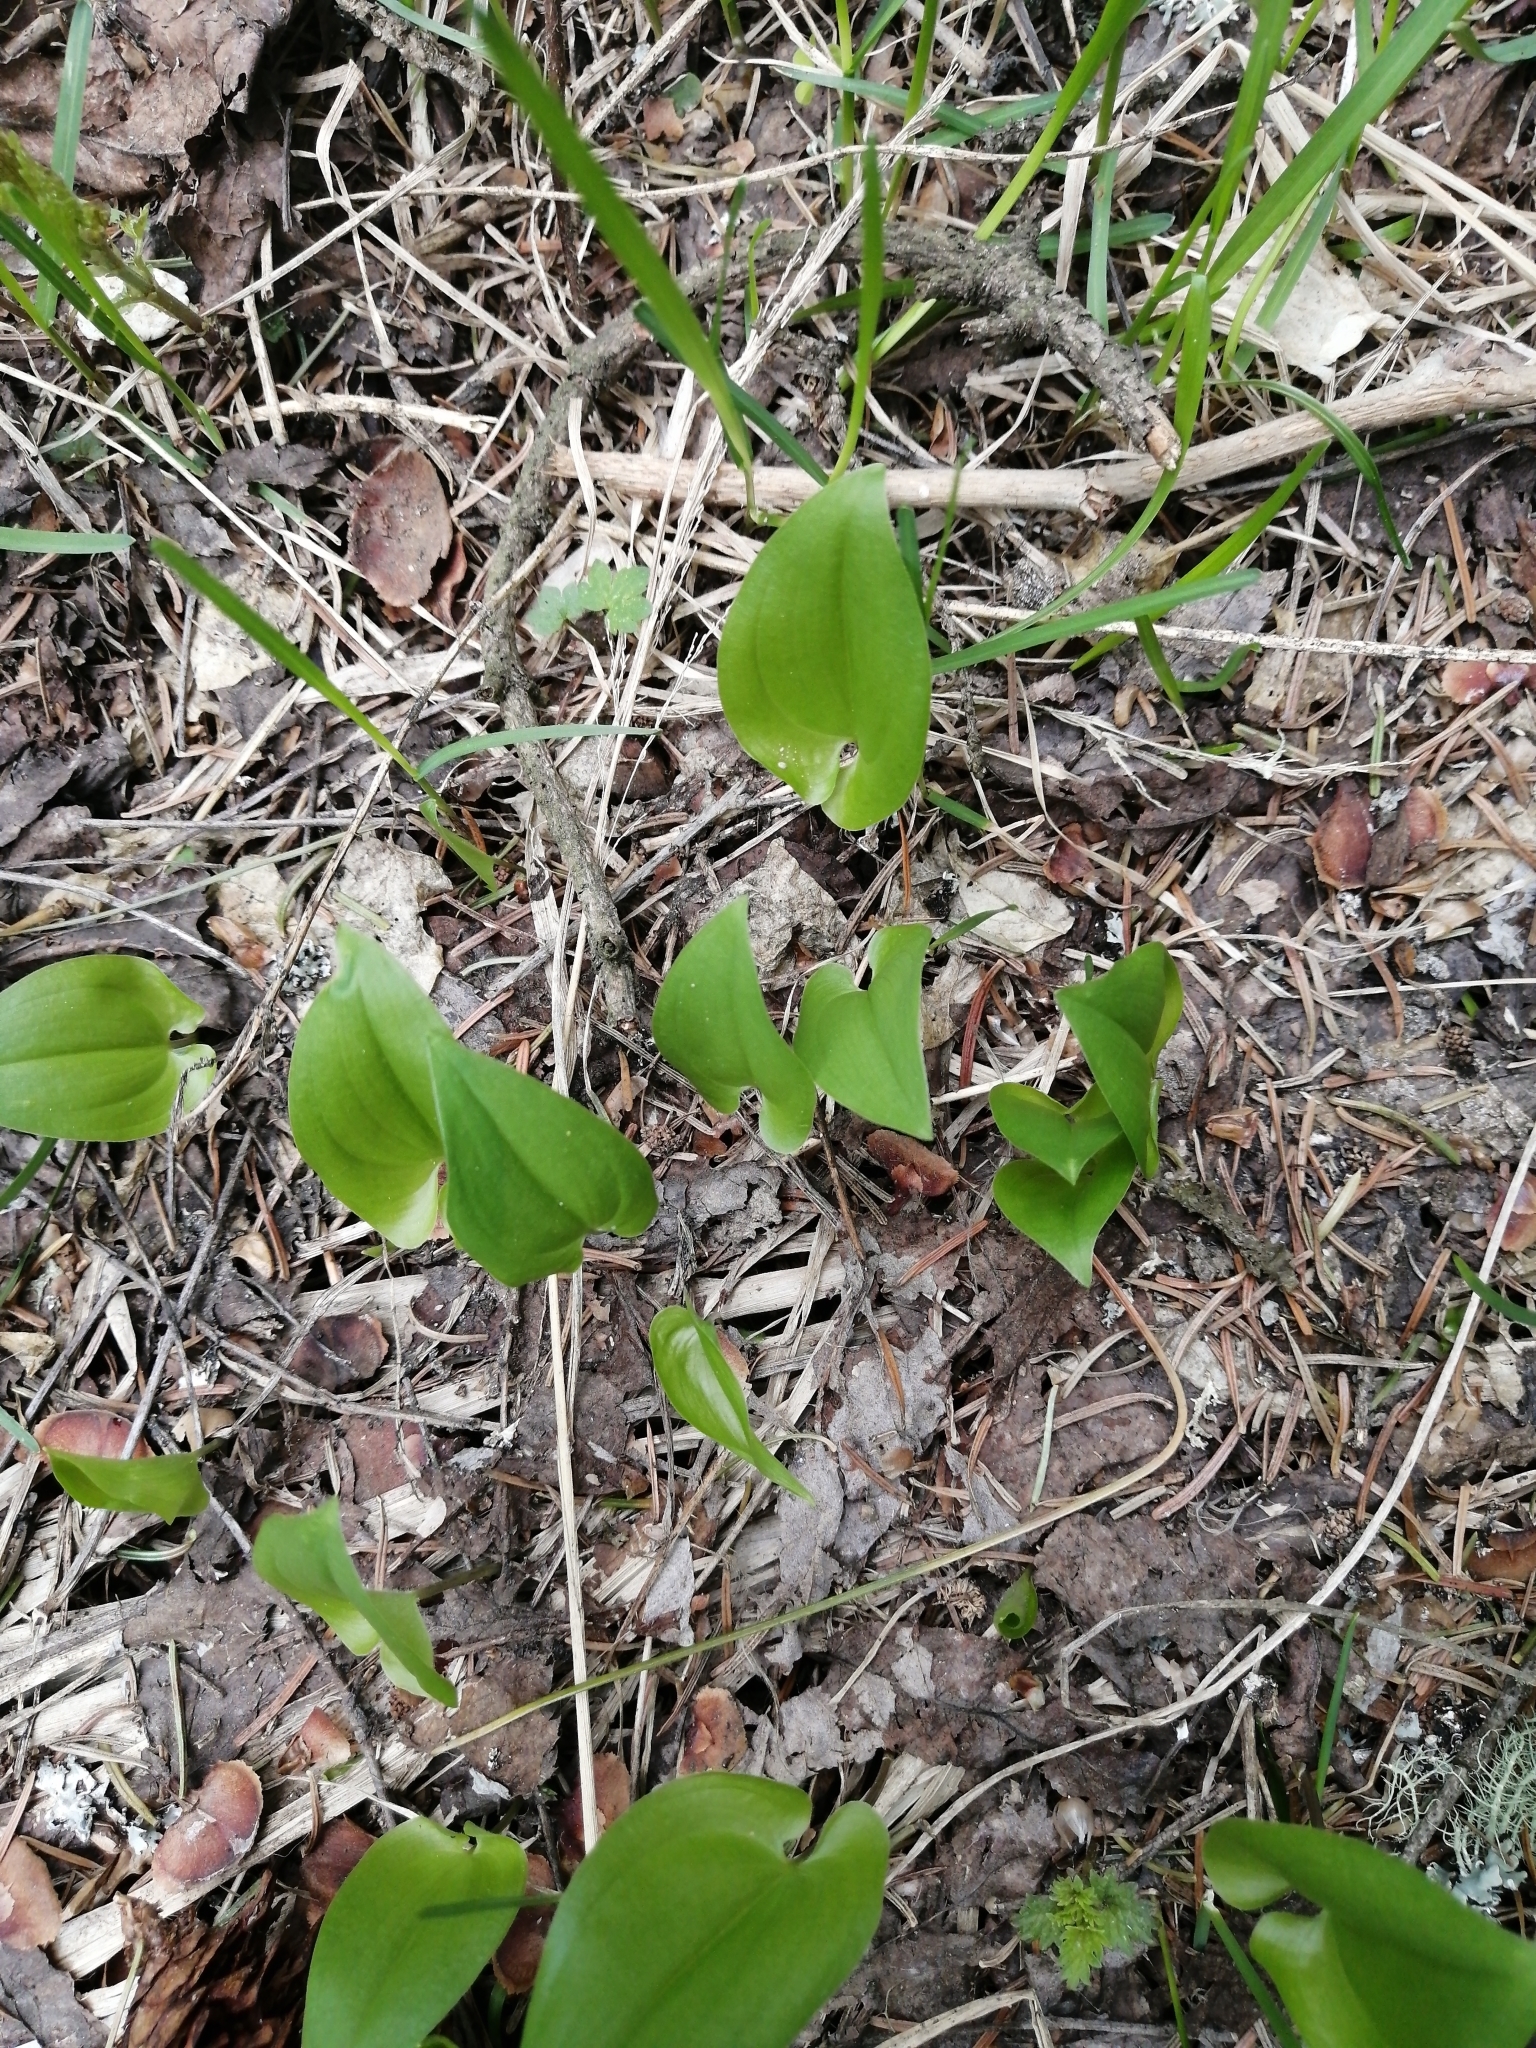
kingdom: Plantae
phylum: Tracheophyta
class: Liliopsida
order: Asparagales
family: Asparagaceae
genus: Maianthemum
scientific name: Maianthemum bifolium
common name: May lily
